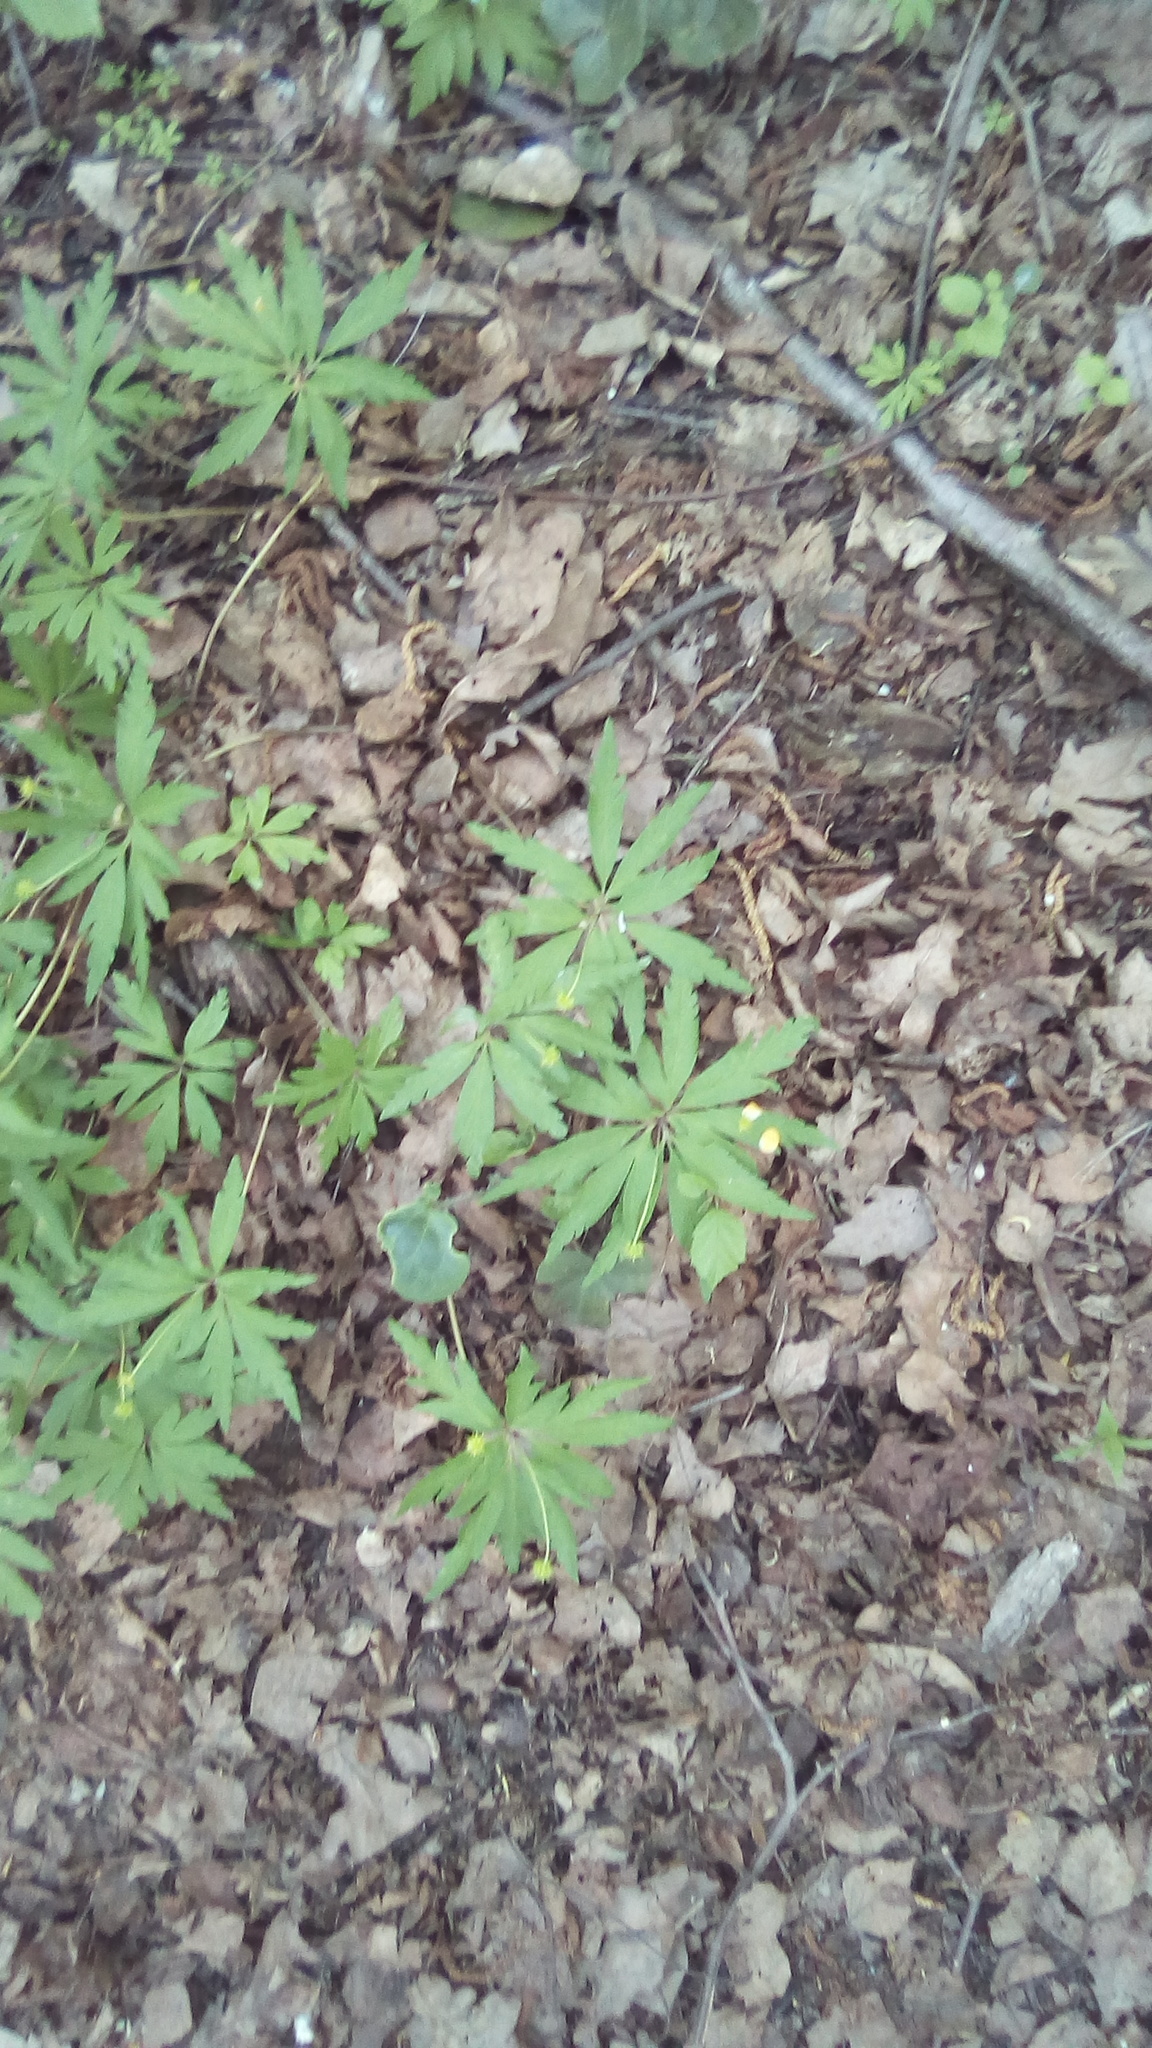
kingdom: Plantae
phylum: Tracheophyta
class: Magnoliopsida
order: Ranunculales
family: Ranunculaceae
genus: Anemone
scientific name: Anemone ranunculoides
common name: Yellow anemone
